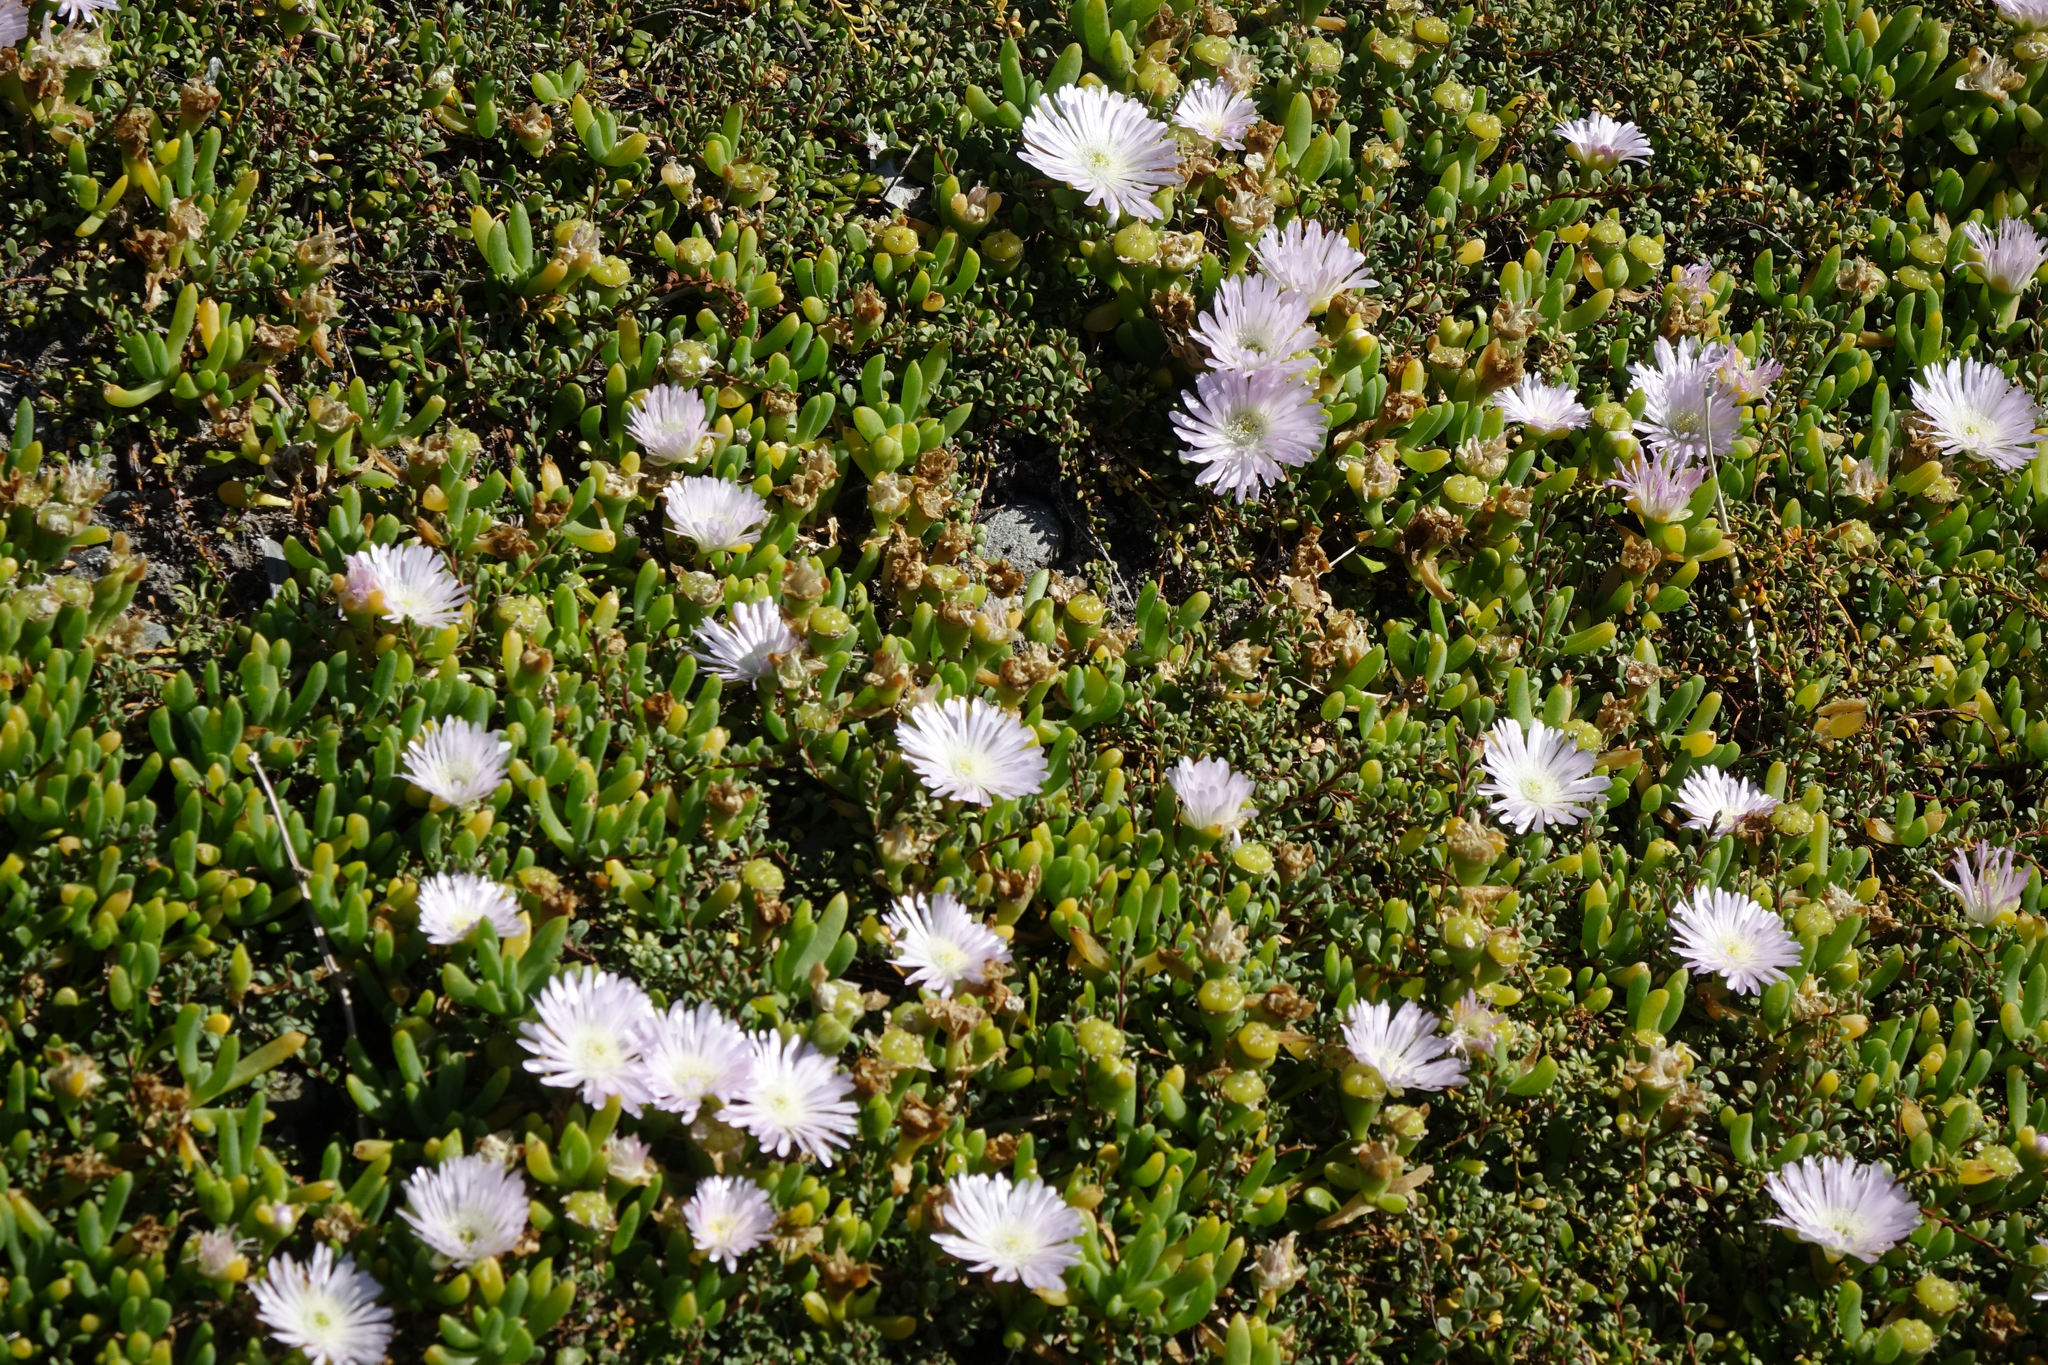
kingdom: Plantae
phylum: Tracheophyta
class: Magnoliopsida
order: Caryophyllales
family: Aizoaceae
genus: Disphyma
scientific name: Disphyma australe
